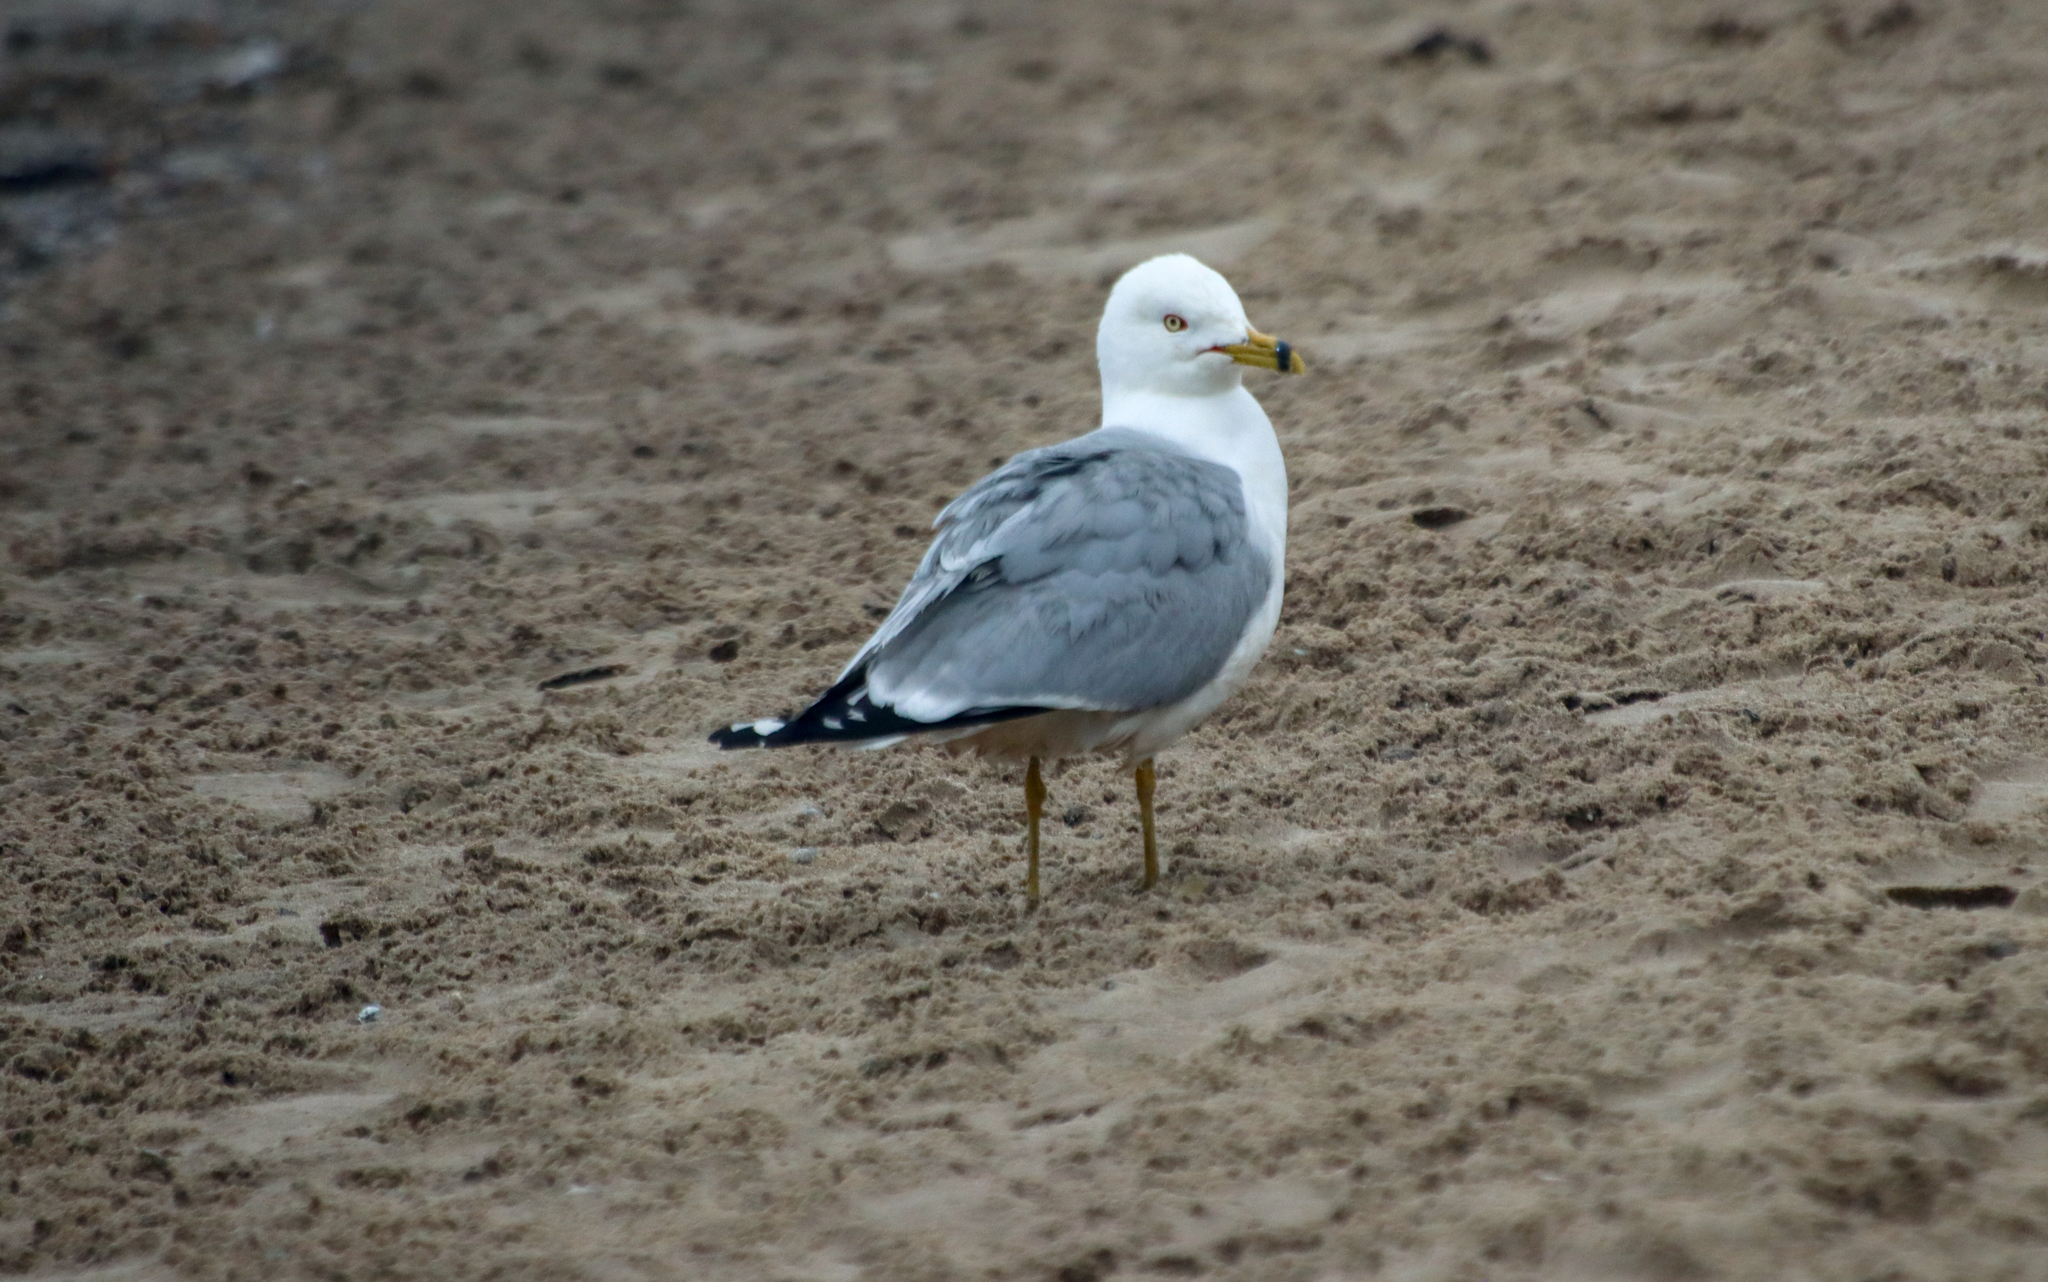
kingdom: Animalia
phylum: Chordata
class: Aves
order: Charadriiformes
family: Laridae
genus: Larus
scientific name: Larus delawarensis
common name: Ring-billed gull
